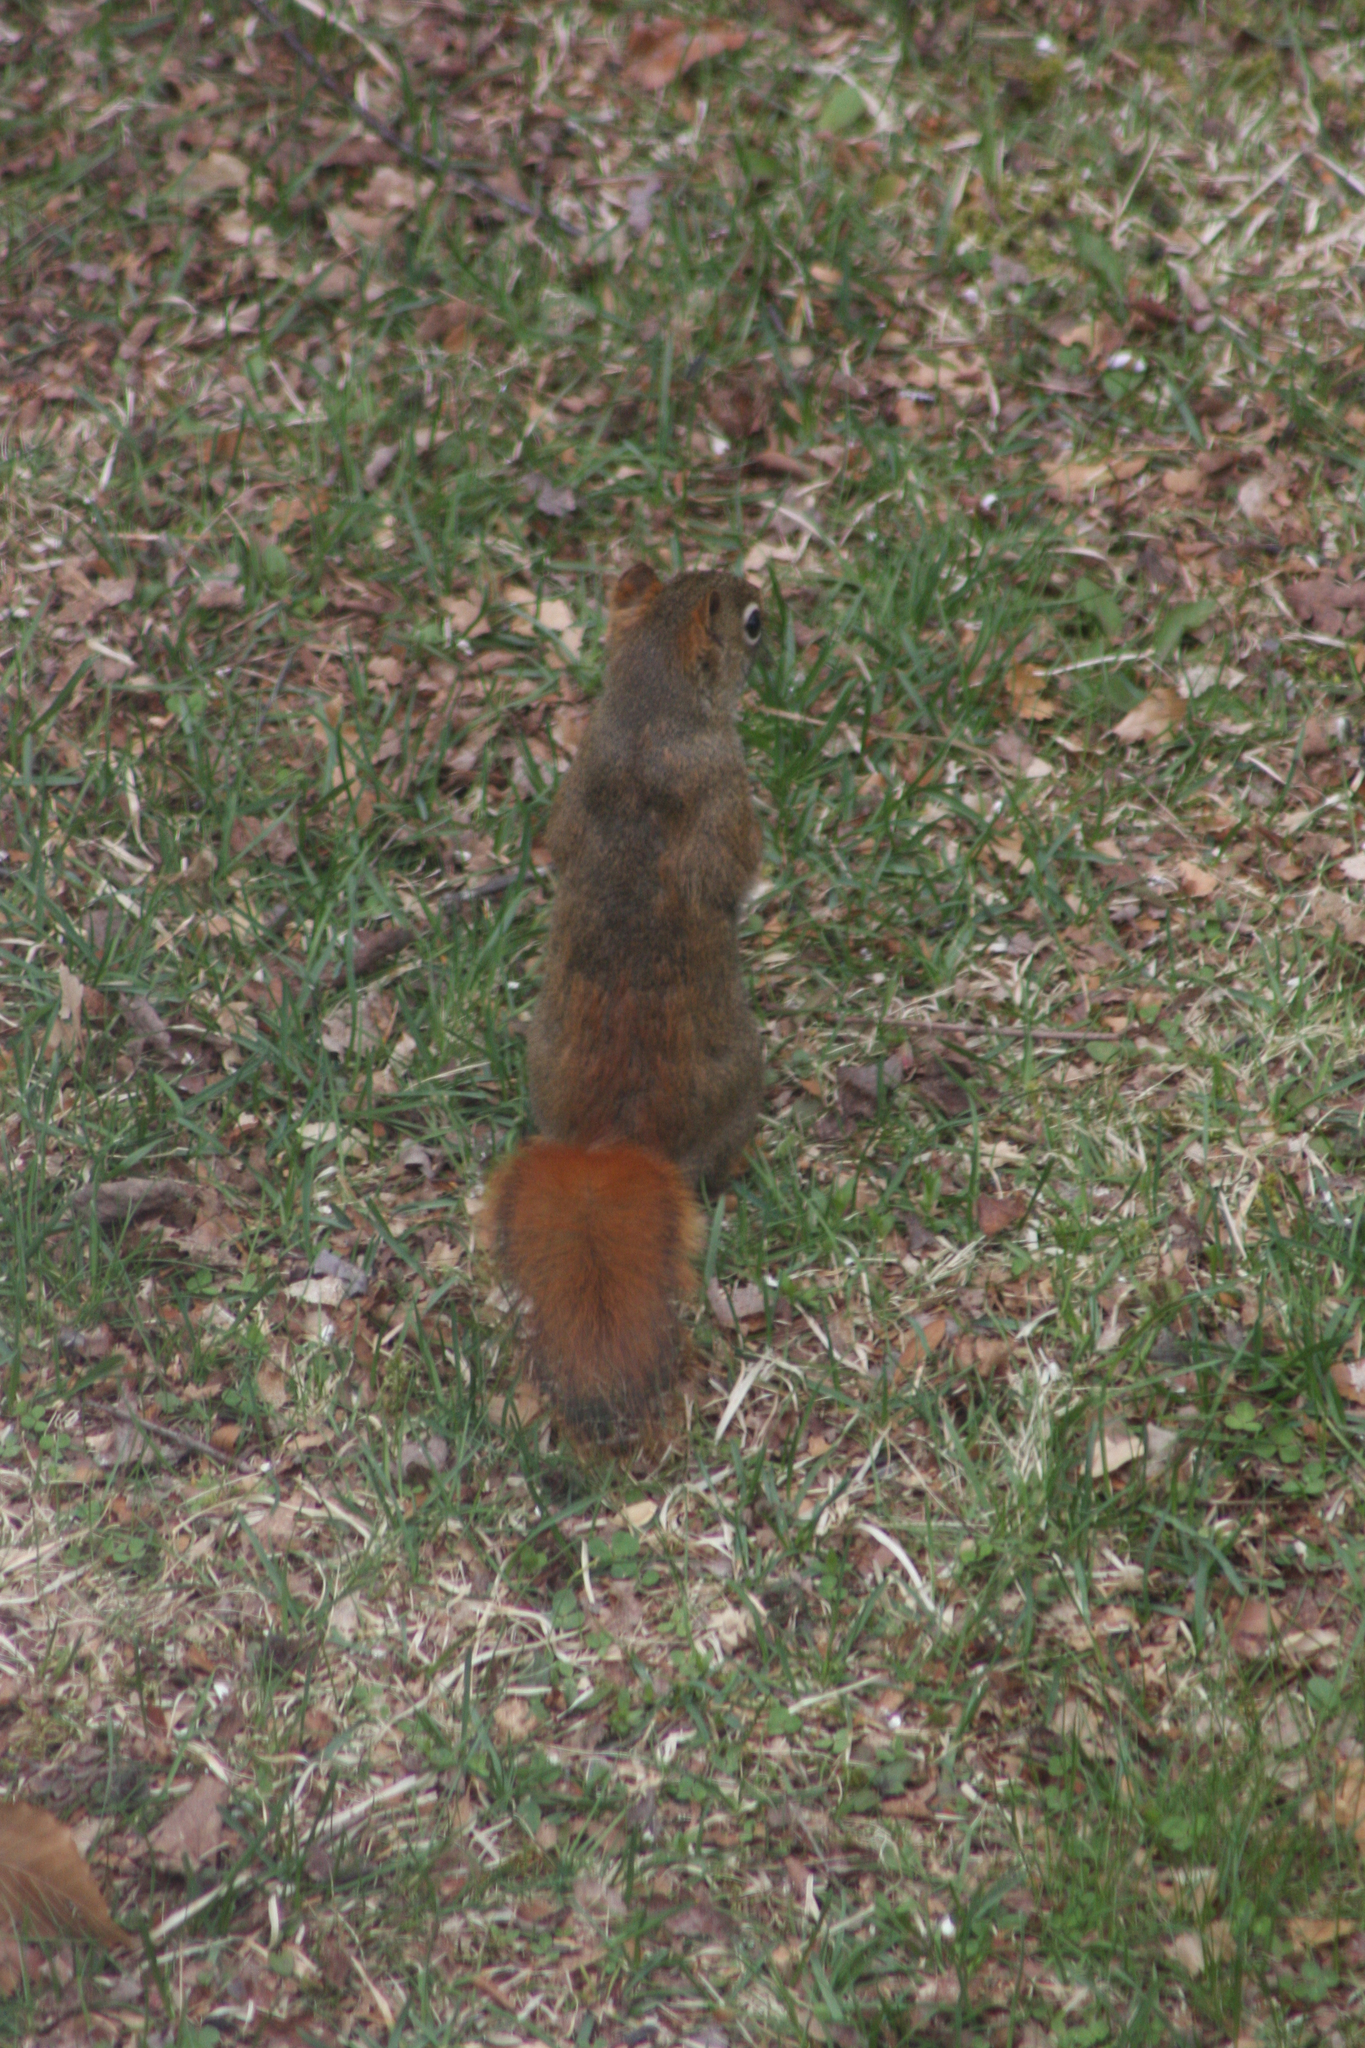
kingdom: Animalia
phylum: Chordata
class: Mammalia
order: Rodentia
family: Sciuridae
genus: Tamiasciurus
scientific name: Tamiasciurus hudsonicus
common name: Red squirrel
